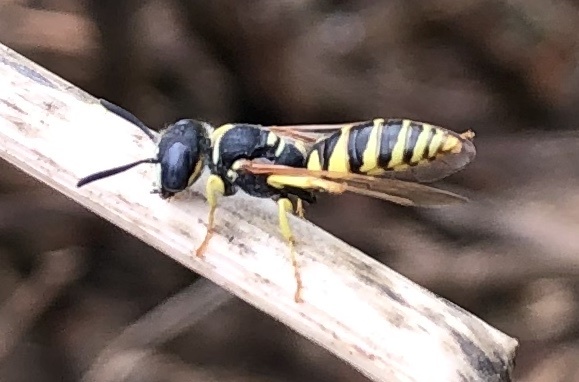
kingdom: Animalia
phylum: Arthropoda
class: Insecta
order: Hymenoptera
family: Crabronidae
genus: Philanthus
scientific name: Philanthus triangulum
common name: Bee wolf
